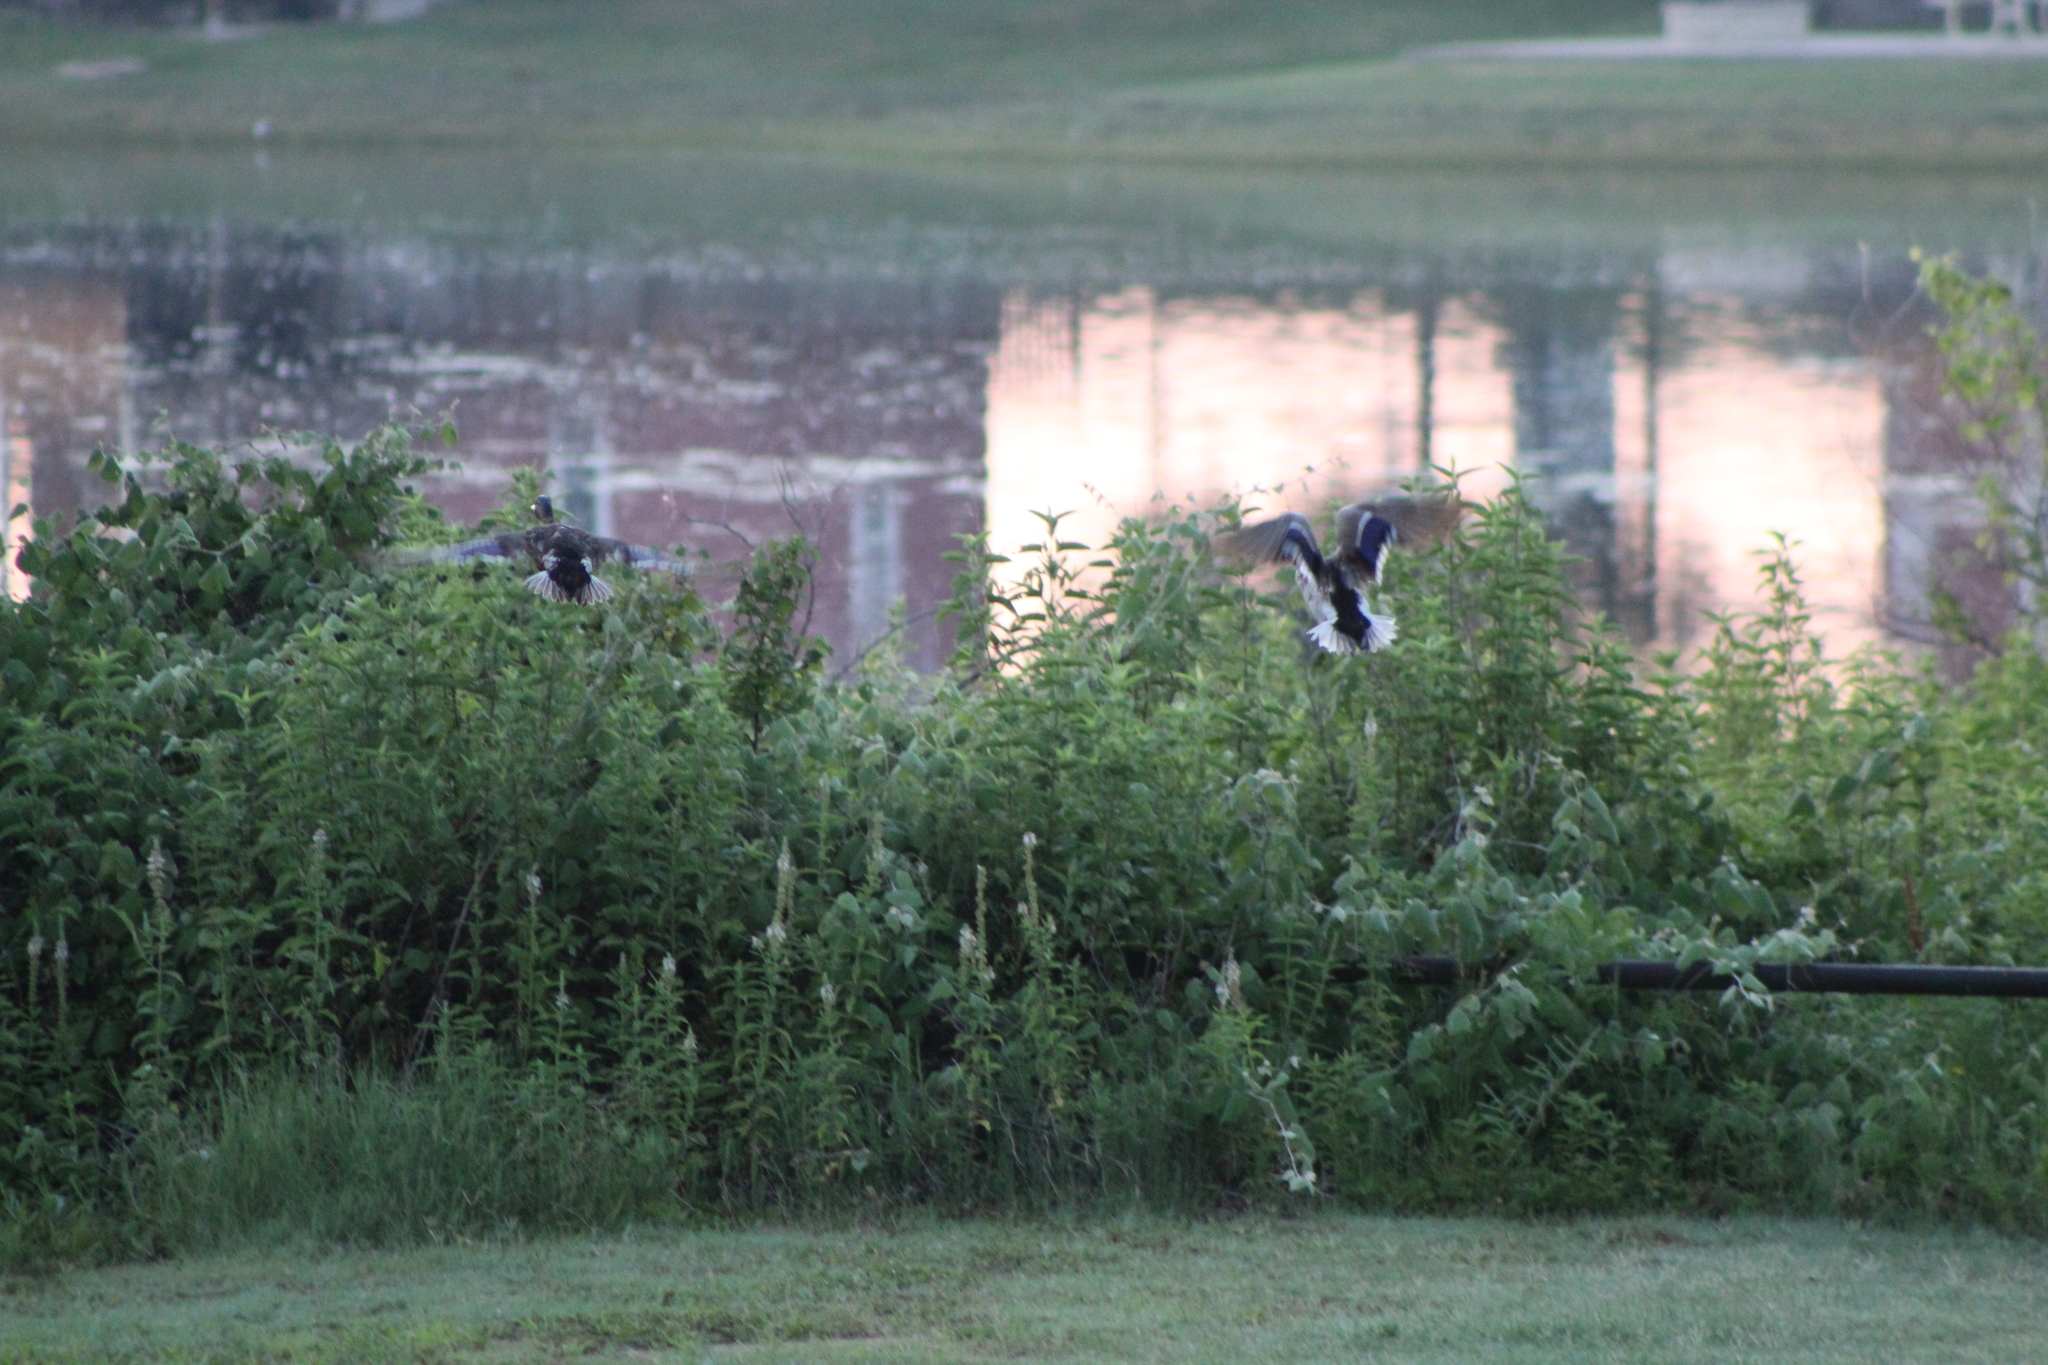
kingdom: Animalia
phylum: Chordata
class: Aves
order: Anseriformes
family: Anatidae
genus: Anas
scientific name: Anas platyrhynchos
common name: Mallard
